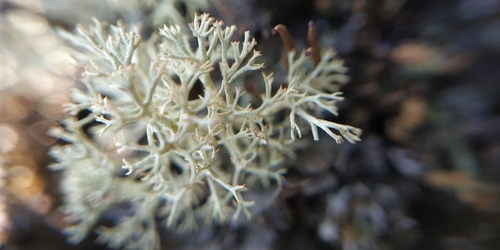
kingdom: Fungi
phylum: Ascomycota
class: Lecanoromycetes
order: Lecanorales
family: Cladoniaceae
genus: Cladonia
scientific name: Cladonia
